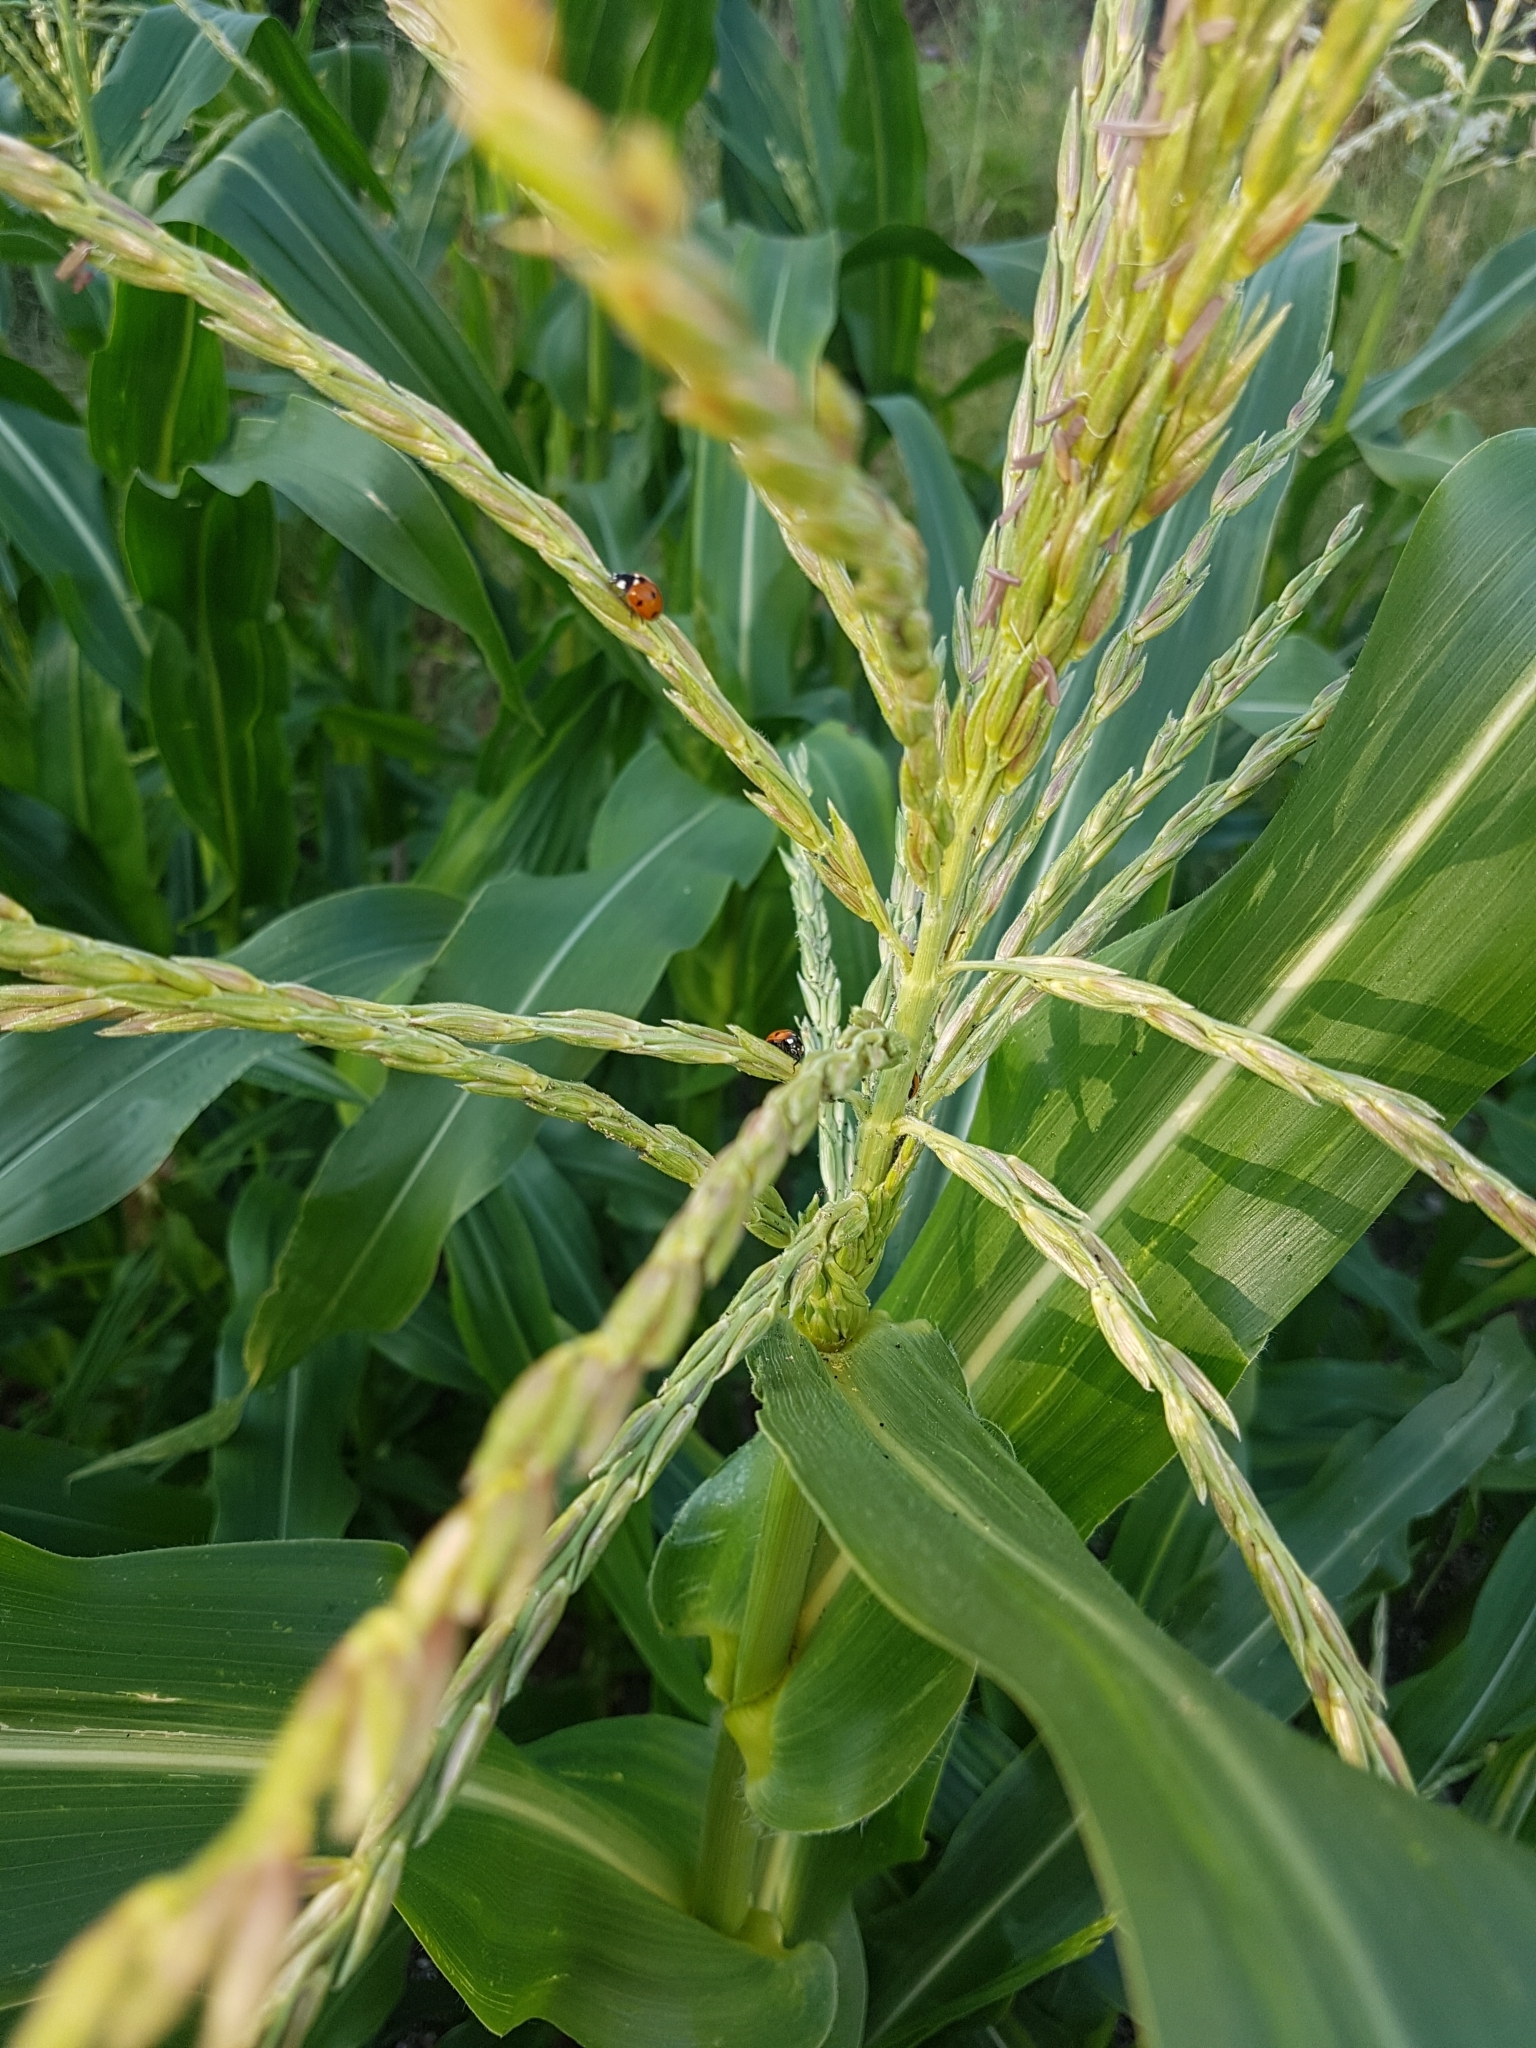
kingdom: Animalia
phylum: Arthropoda
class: Insecta
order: Coleoptera
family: Coccinellidae
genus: Coccinella
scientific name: Coccinella septempunctata
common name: Sevenspotted lady beetle
